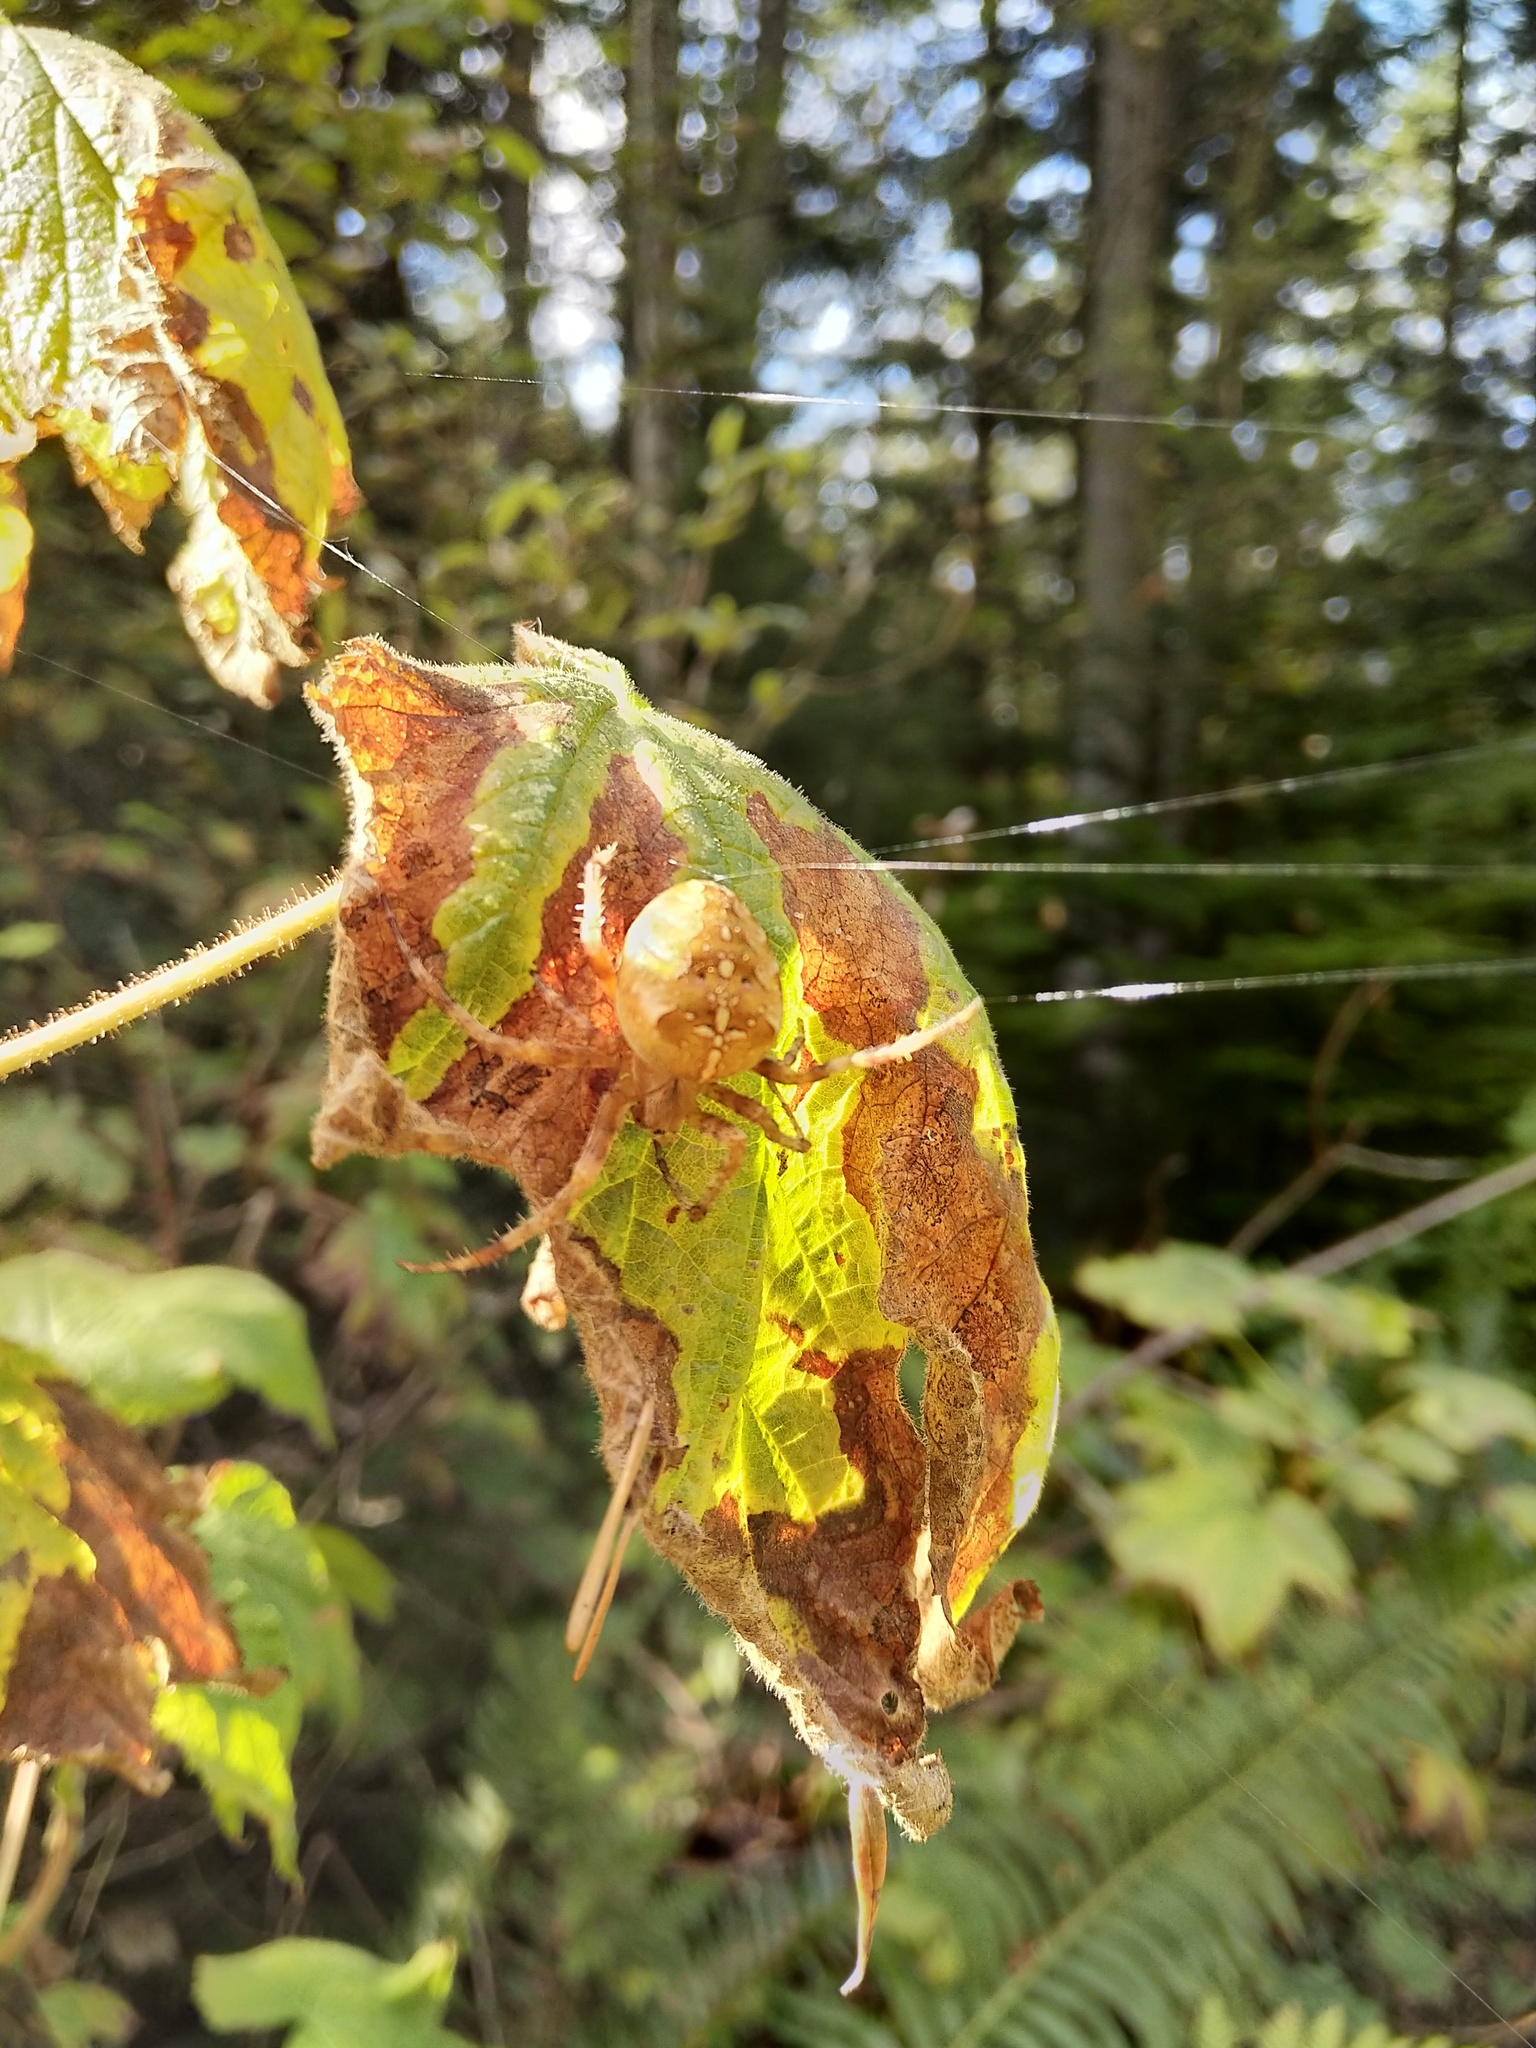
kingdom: Animalia
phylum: Arthropoda
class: Arachnida
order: Araneae
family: Araneidae
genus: Araneus
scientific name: Araneus diadematus
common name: Cross orbweaver
